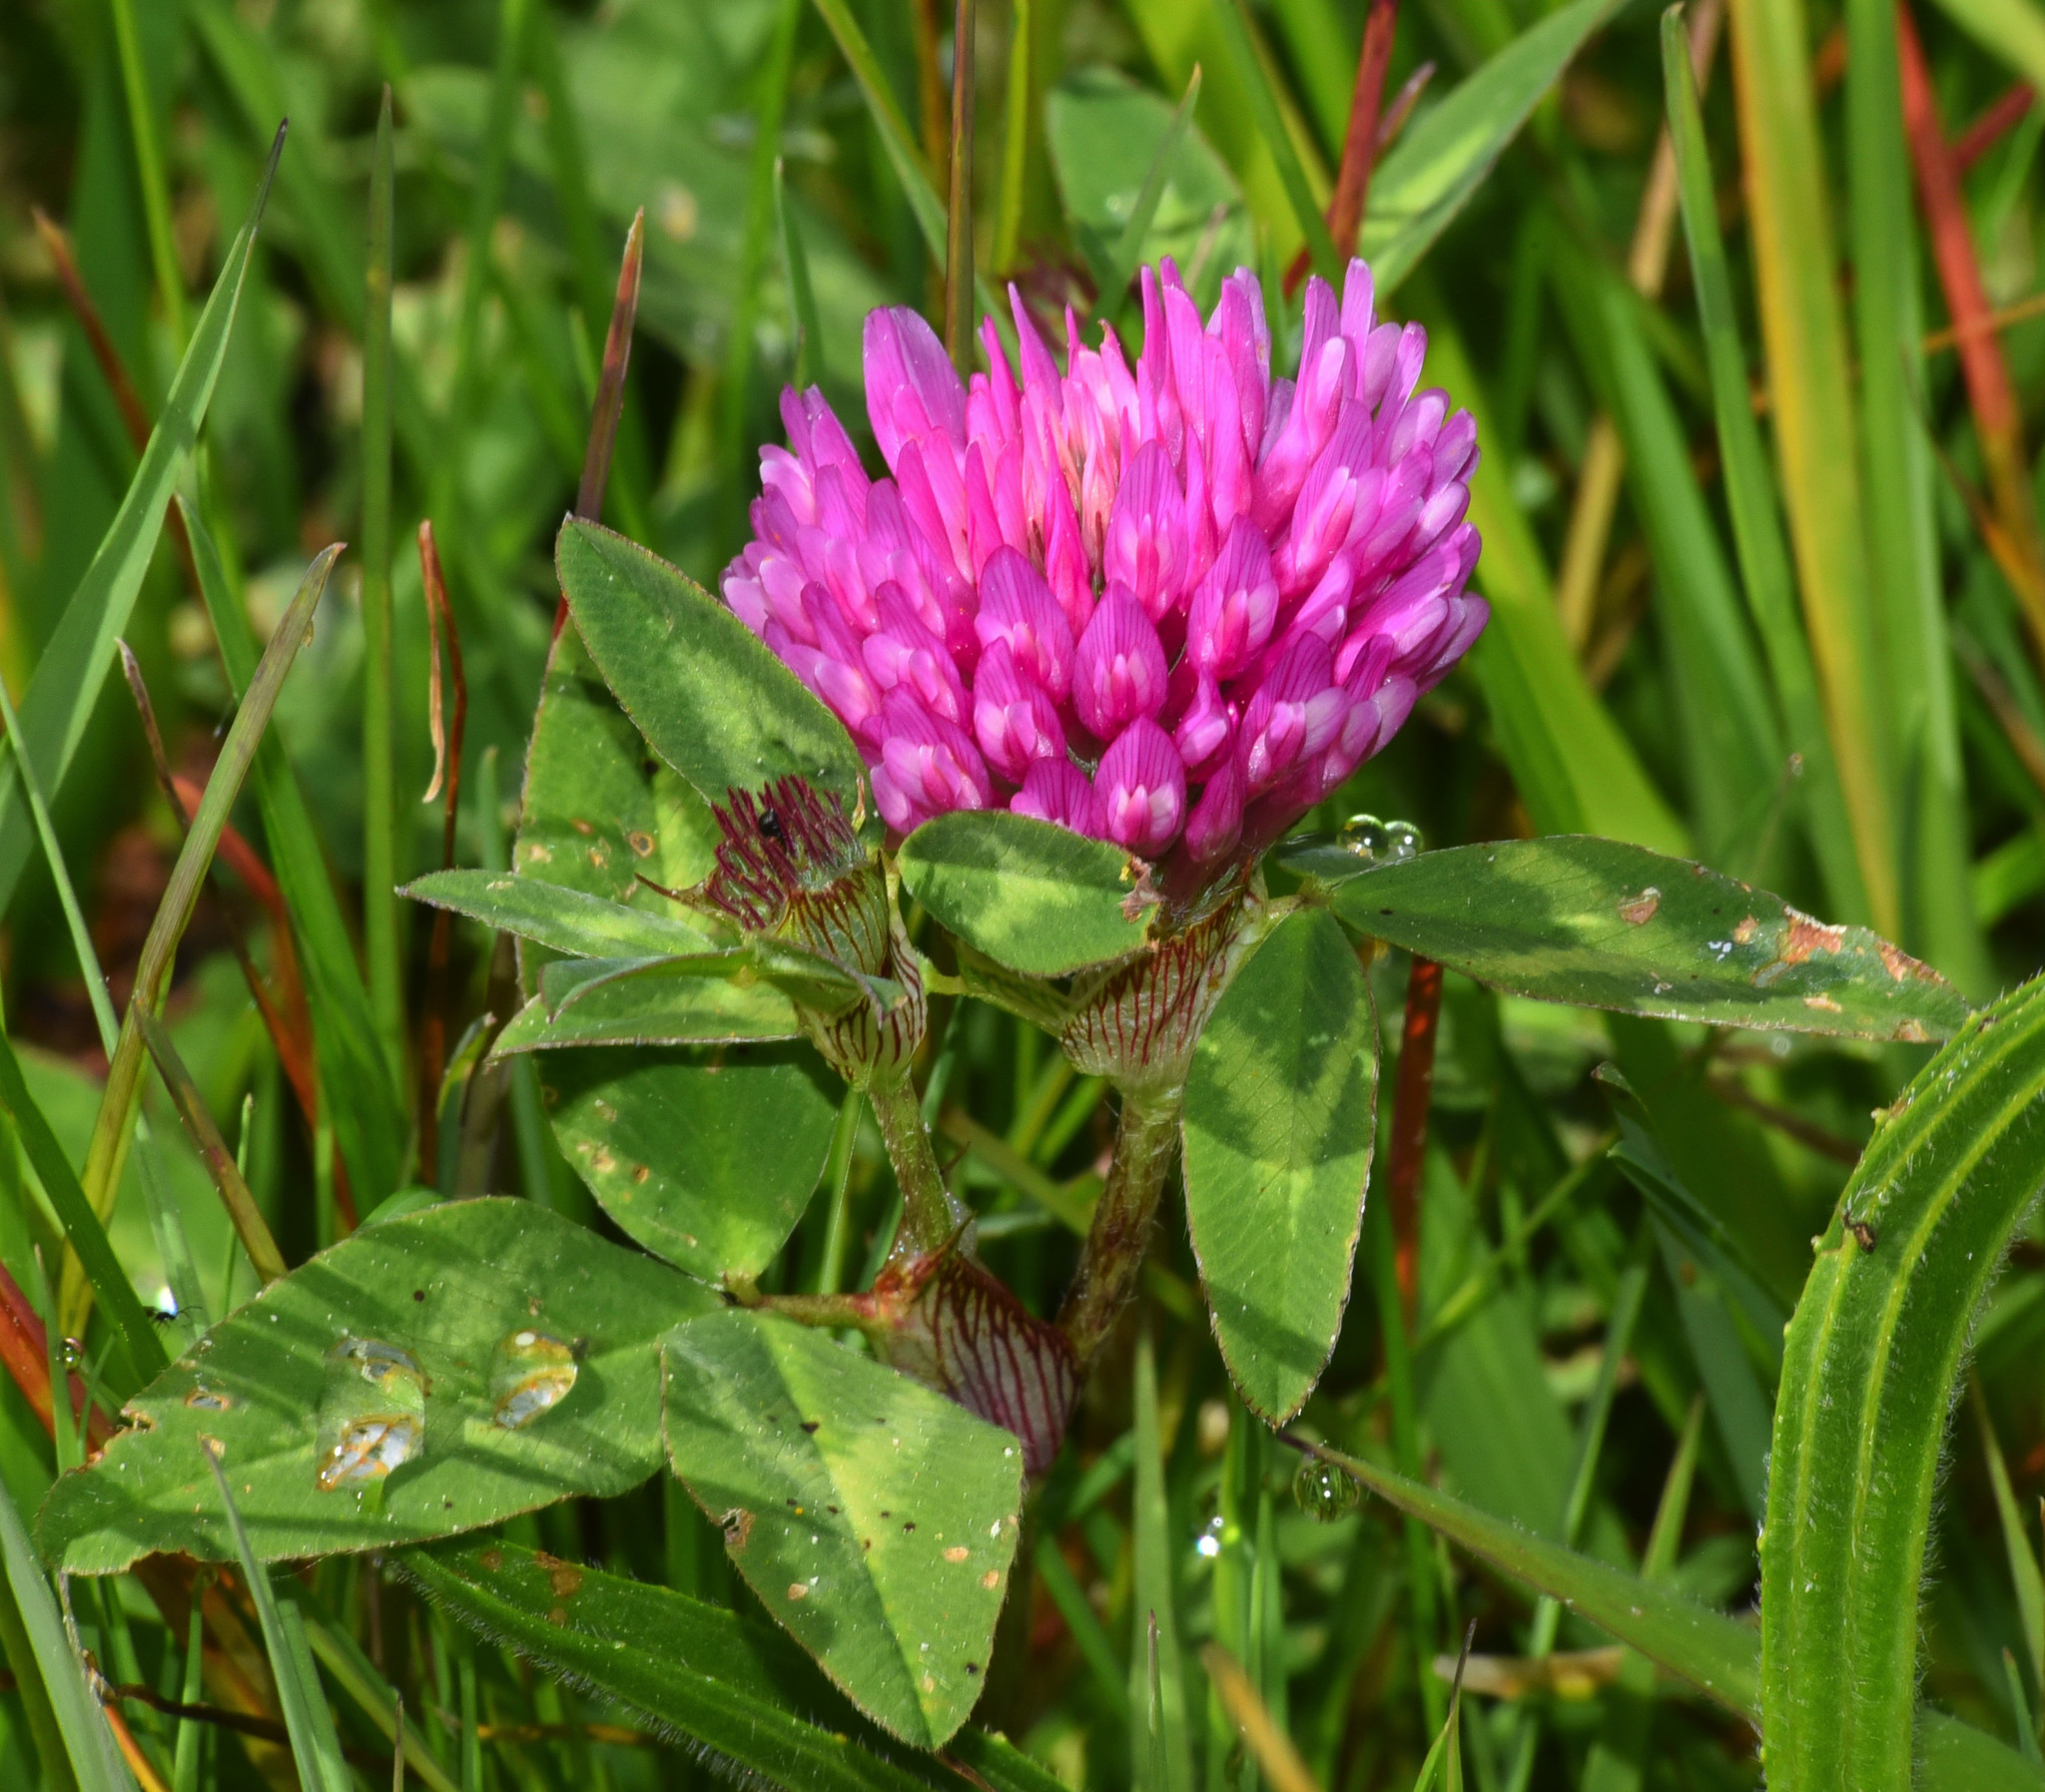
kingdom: Plantae
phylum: Tracheophyta
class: Magnoliopsida
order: Fabales
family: Fabaceae
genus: Trifolium
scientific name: Trifolium pratense
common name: Red clover
